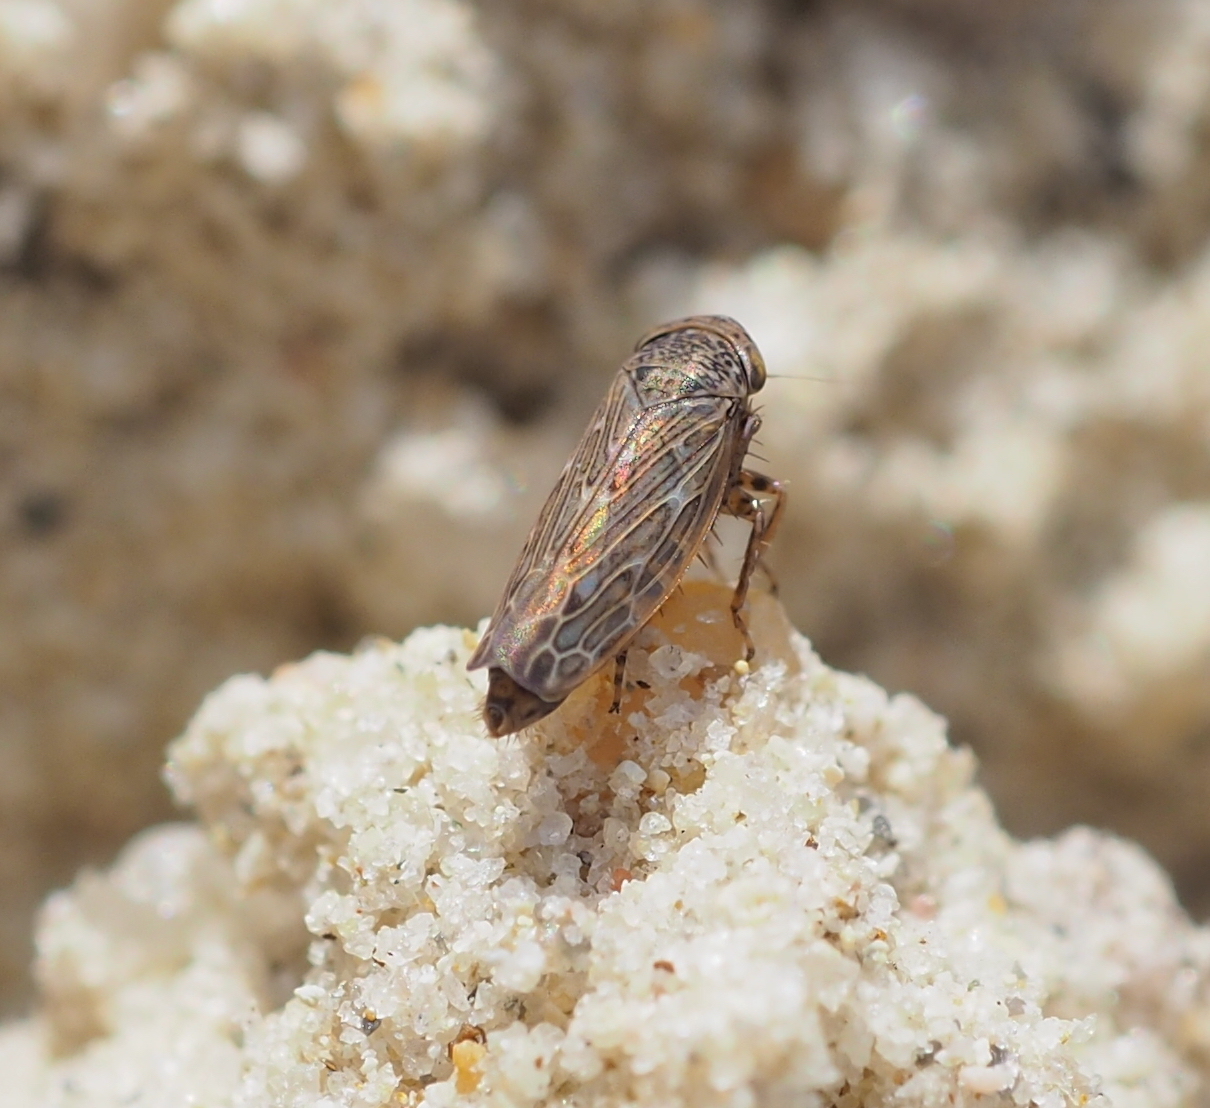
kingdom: Animalia
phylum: Arthropoda
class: Insecta
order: Hemiptera
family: Cicadellidae
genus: Ophiola
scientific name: Ophiola decumana
